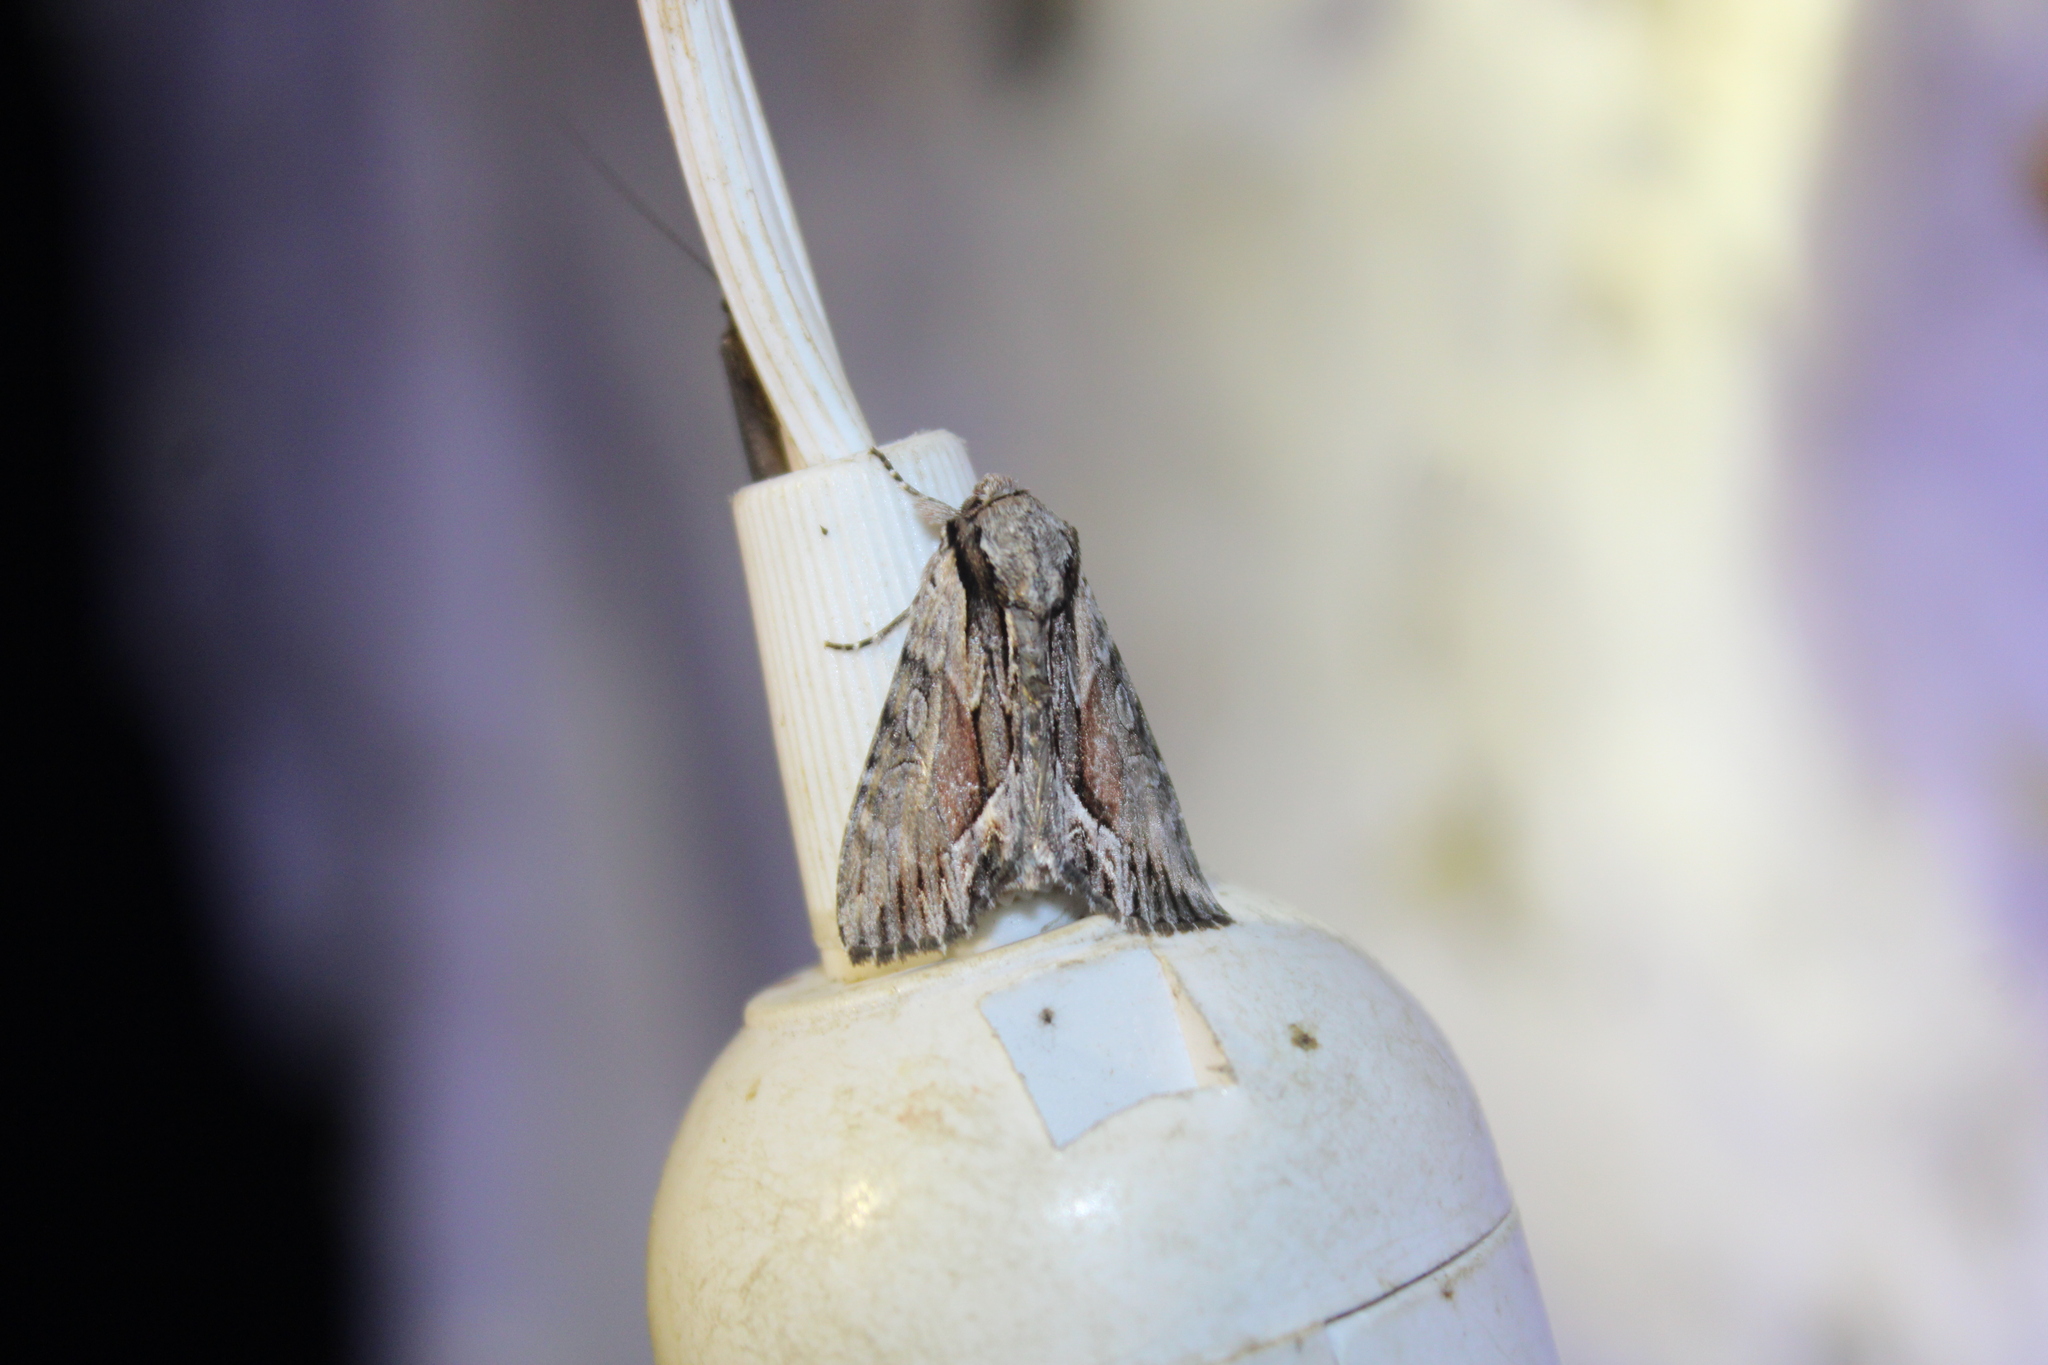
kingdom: Animalia
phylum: Arthropoda
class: Insecta
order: Lepidoptera
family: Noctuidae
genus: Hyppa
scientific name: Hyppa xylinoides
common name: Common hyppa moth
